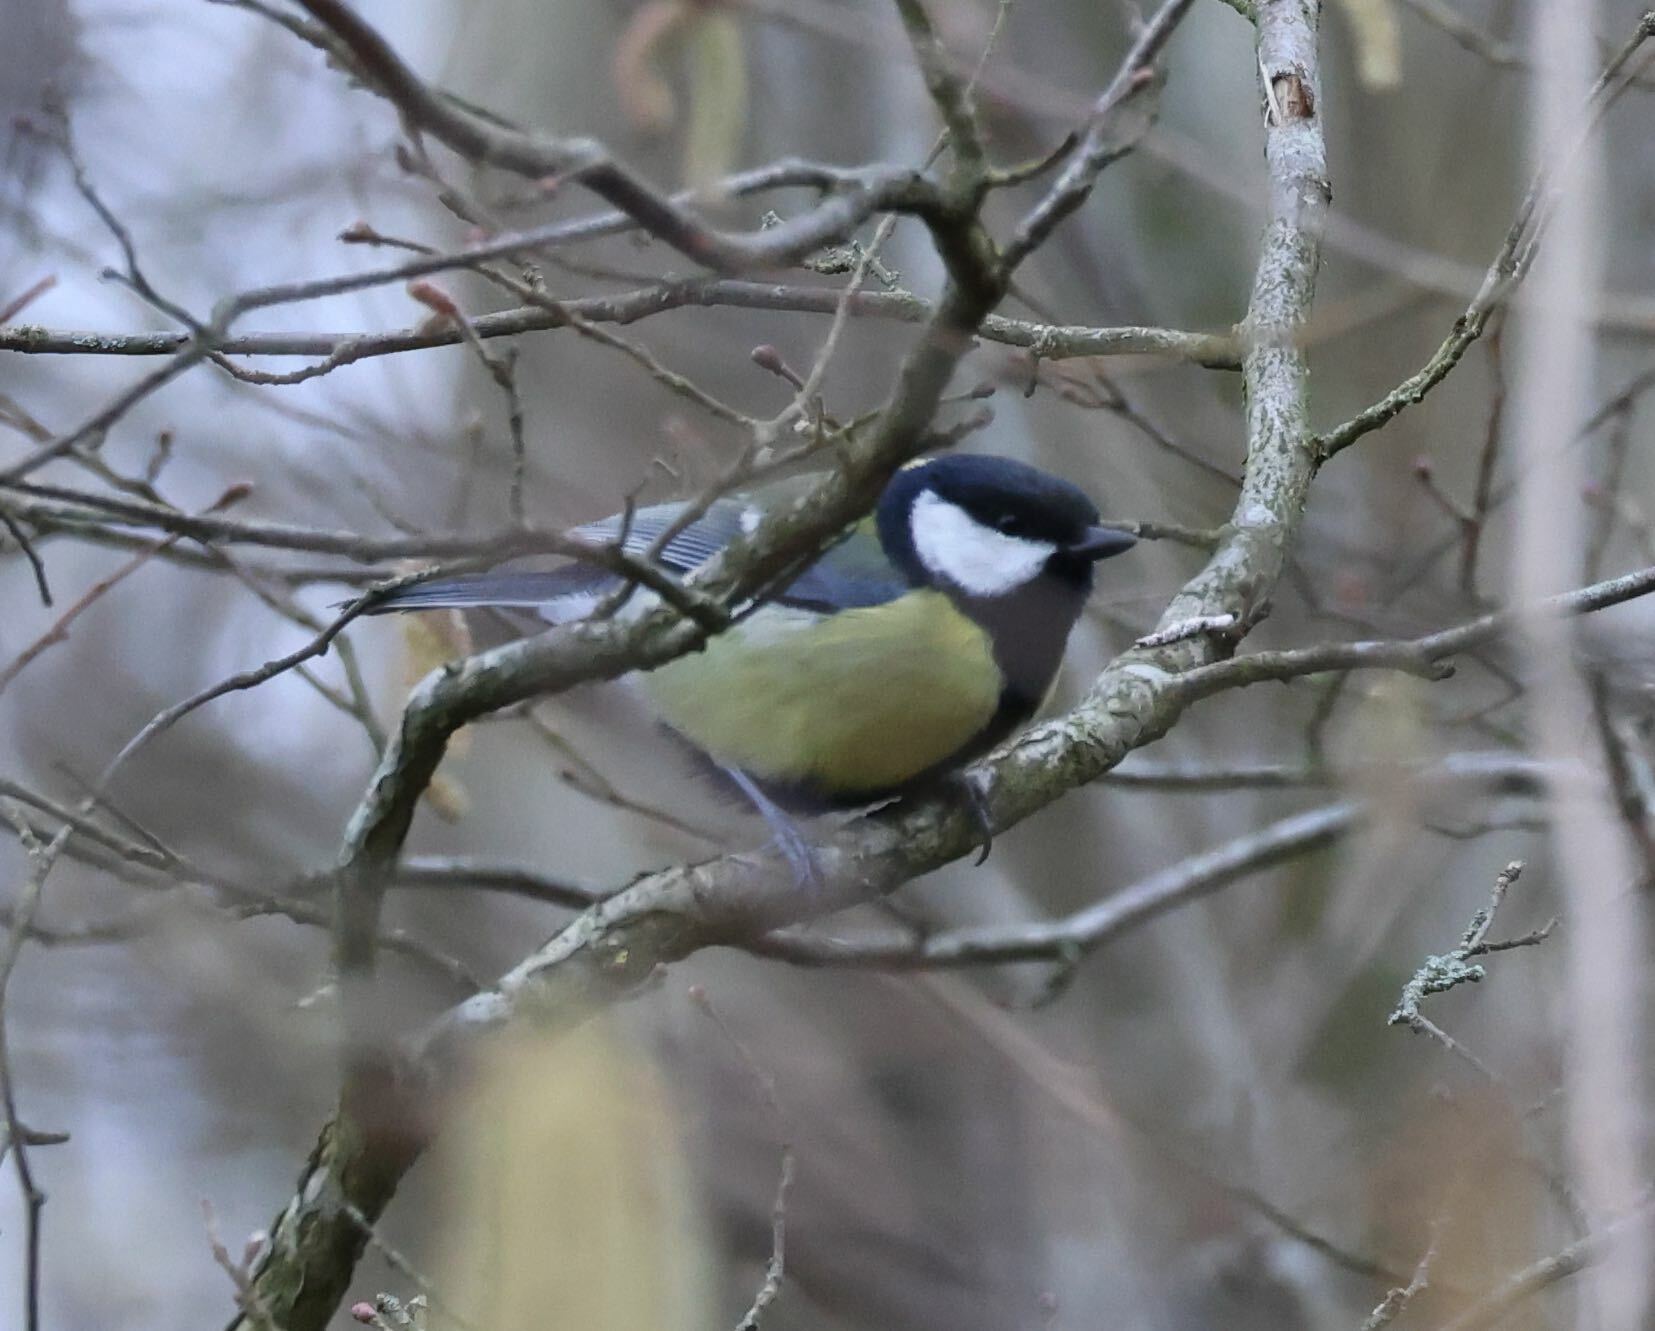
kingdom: Animalia
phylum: Chordata
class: Aves
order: Passeriformes
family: Paridae
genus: Parus
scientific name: Parus major
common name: Great tit
